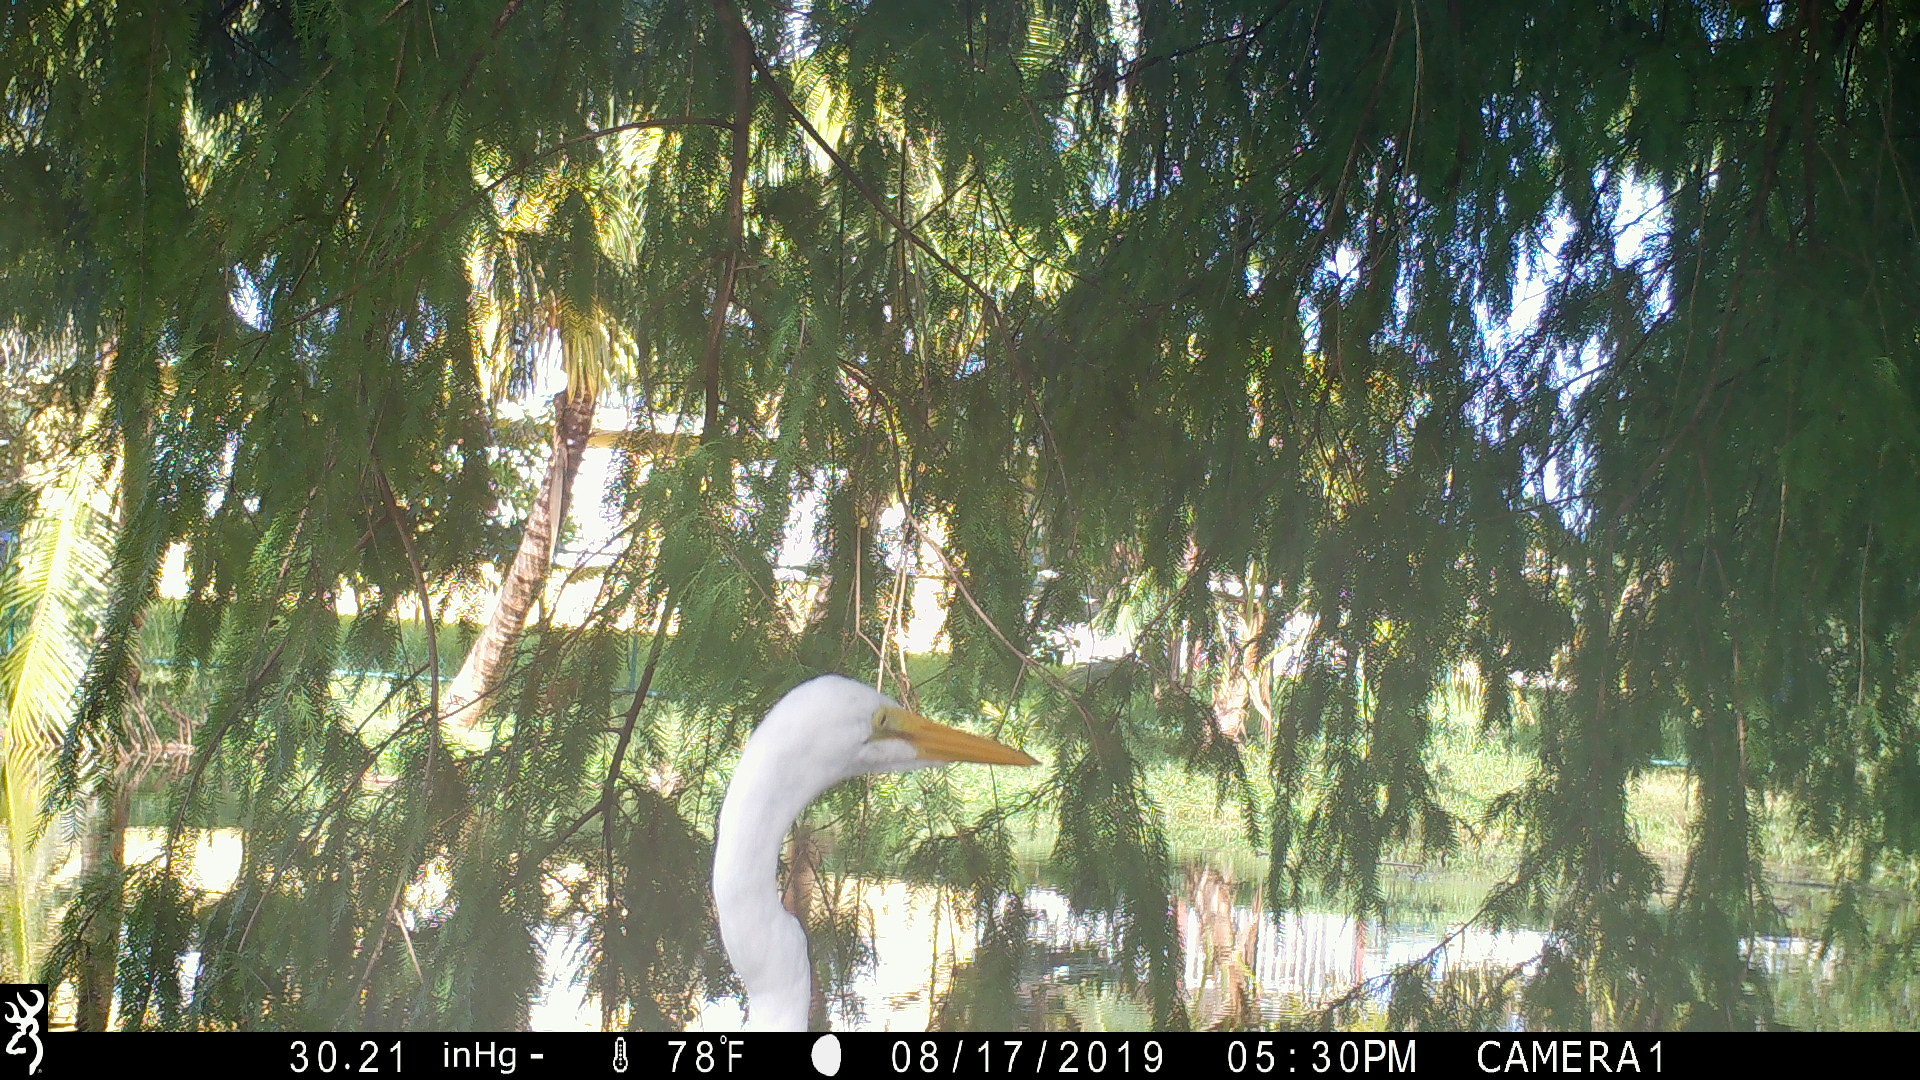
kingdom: Animalia
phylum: Chordata
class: Aves
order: Pelecaniformes
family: Ardeidae
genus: Ardea
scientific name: Ardea alba
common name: Great egret
